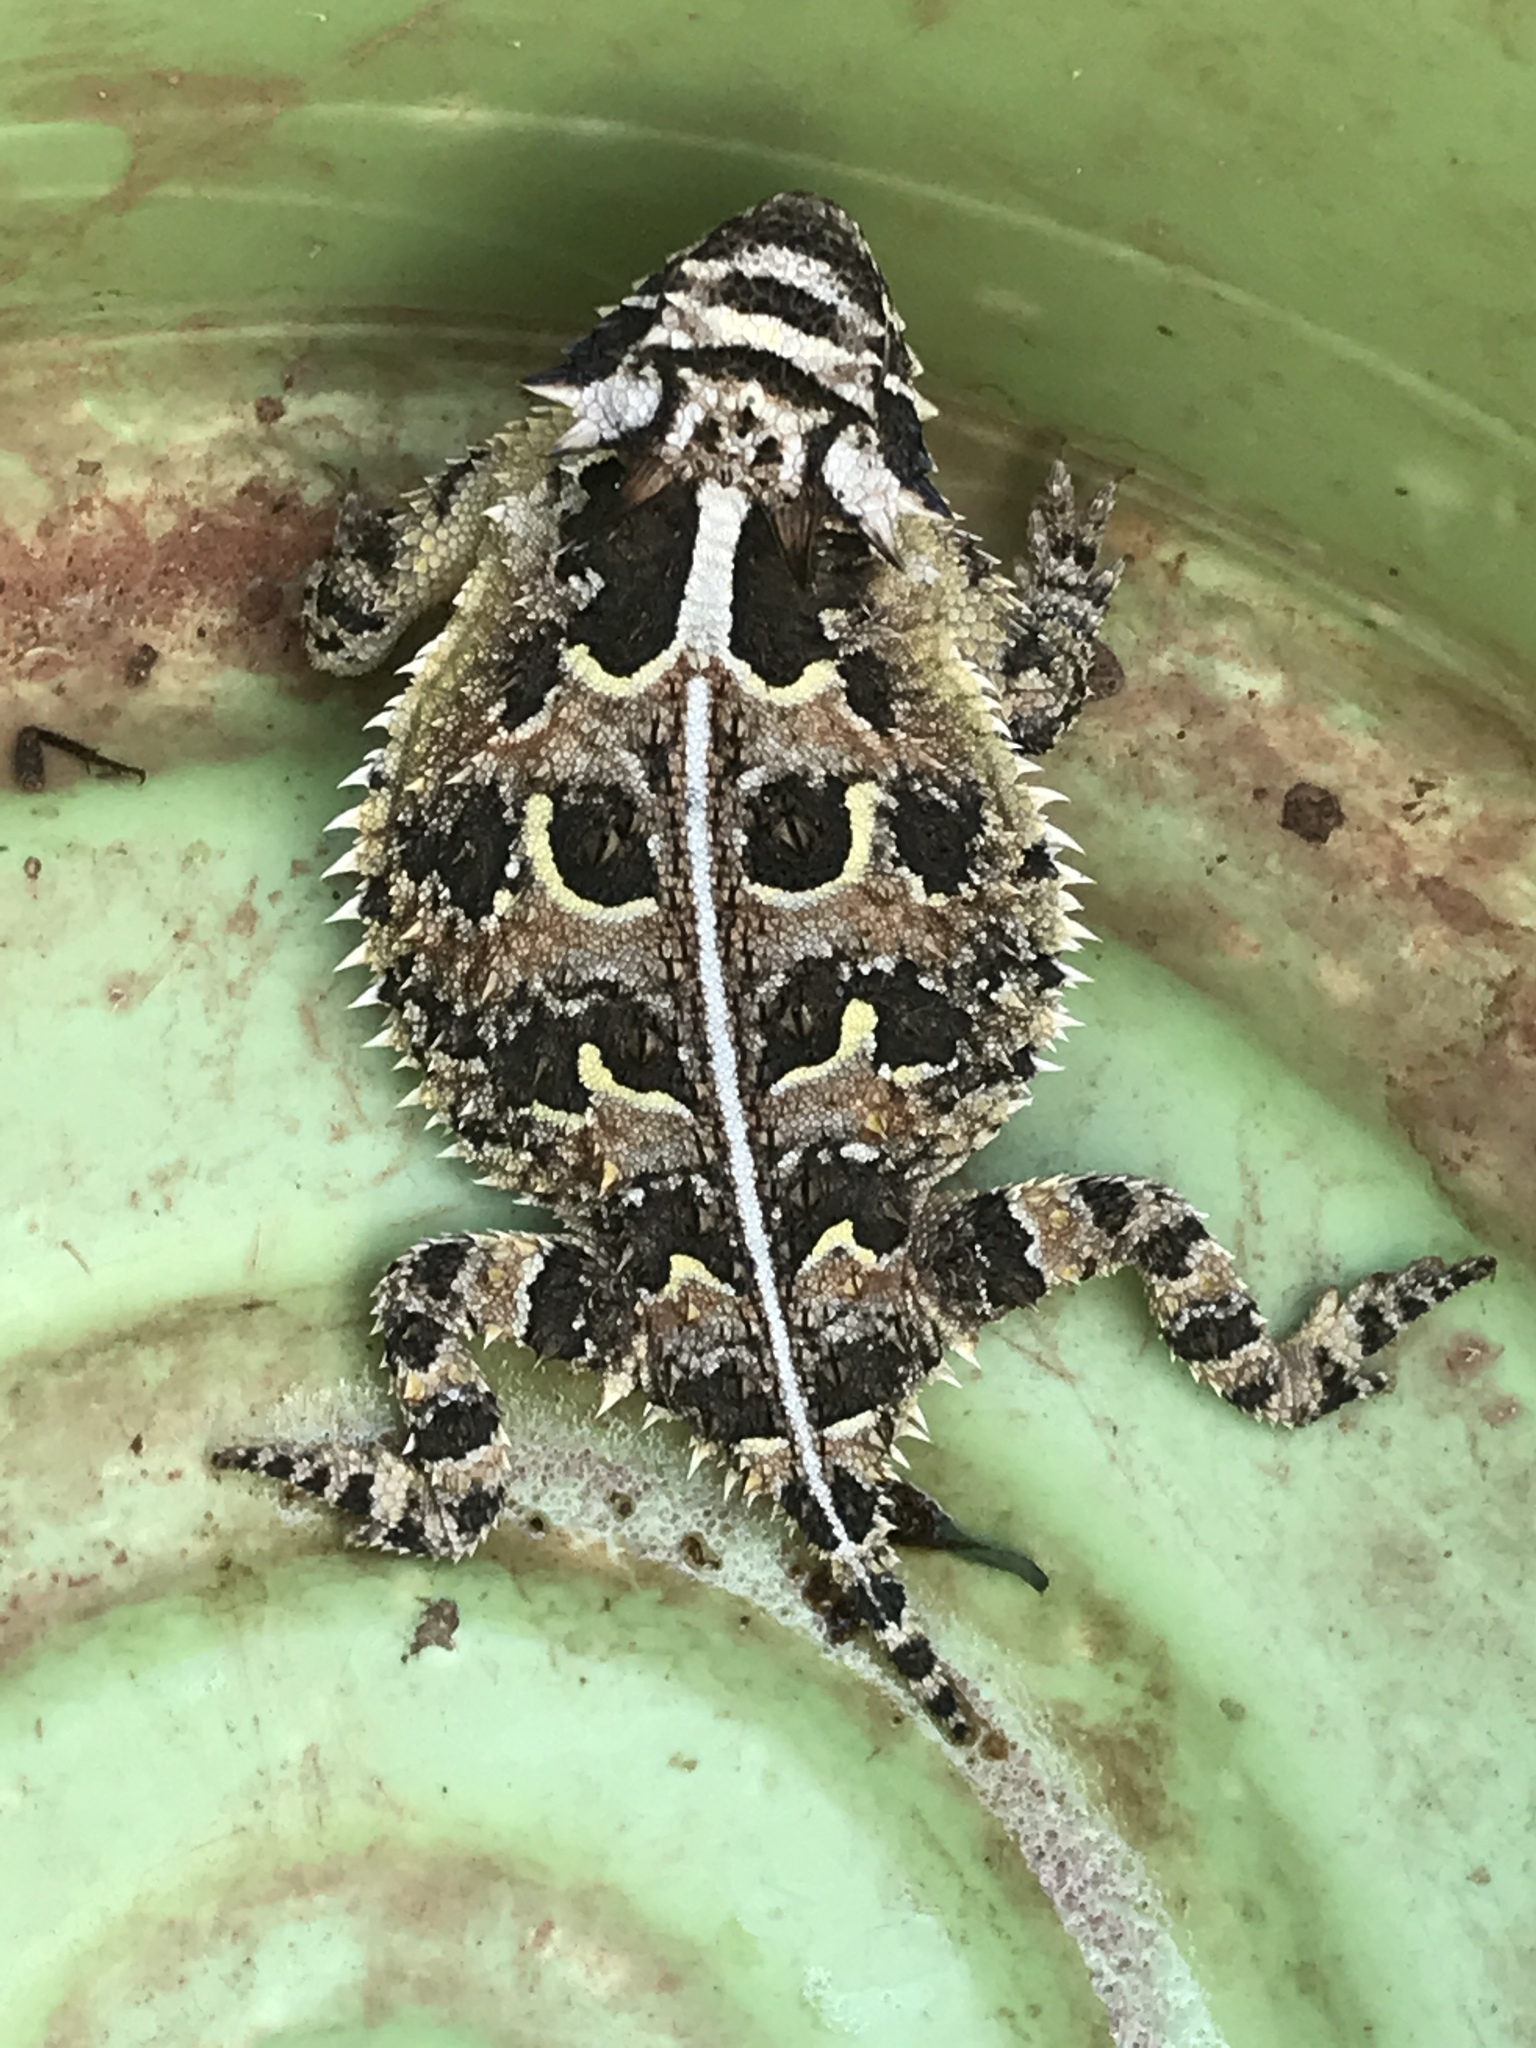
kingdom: Animalia
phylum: Chordata
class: Squamata
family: Phrynosomatidae
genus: Phrynosoma
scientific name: Phrynosoma cornutum
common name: Texas horned lizard
